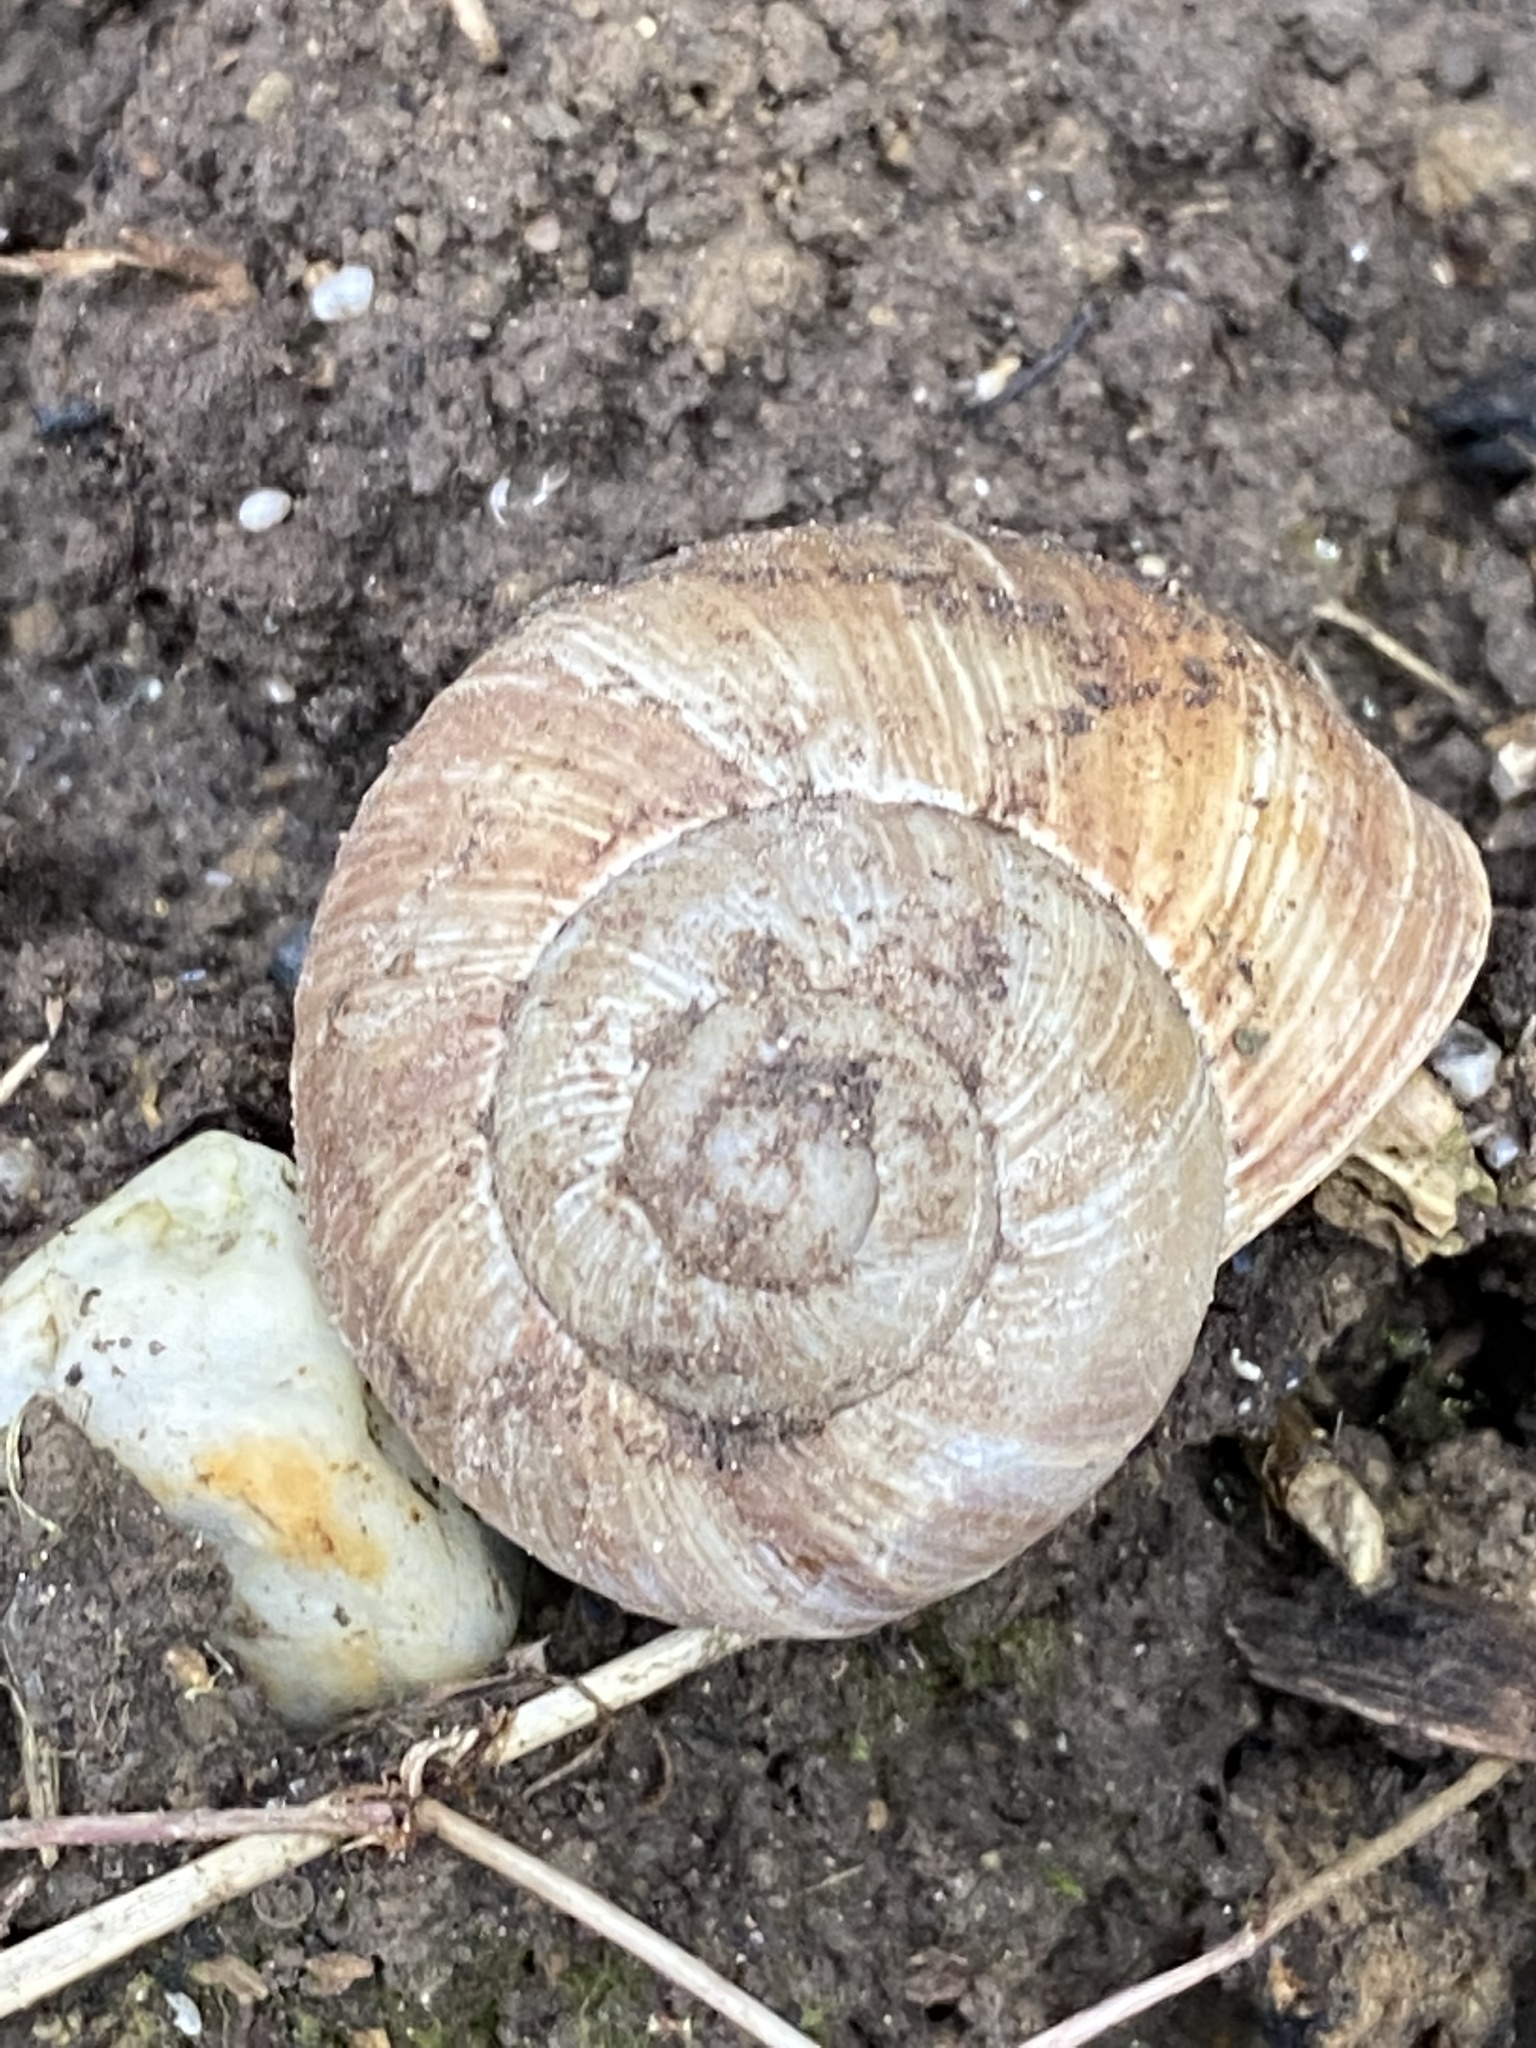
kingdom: Animalia
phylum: Mollusca
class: Gastropoda
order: Stylommatophora
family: Helicidae
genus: Helix
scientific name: Helix pomatia
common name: Roman snail
